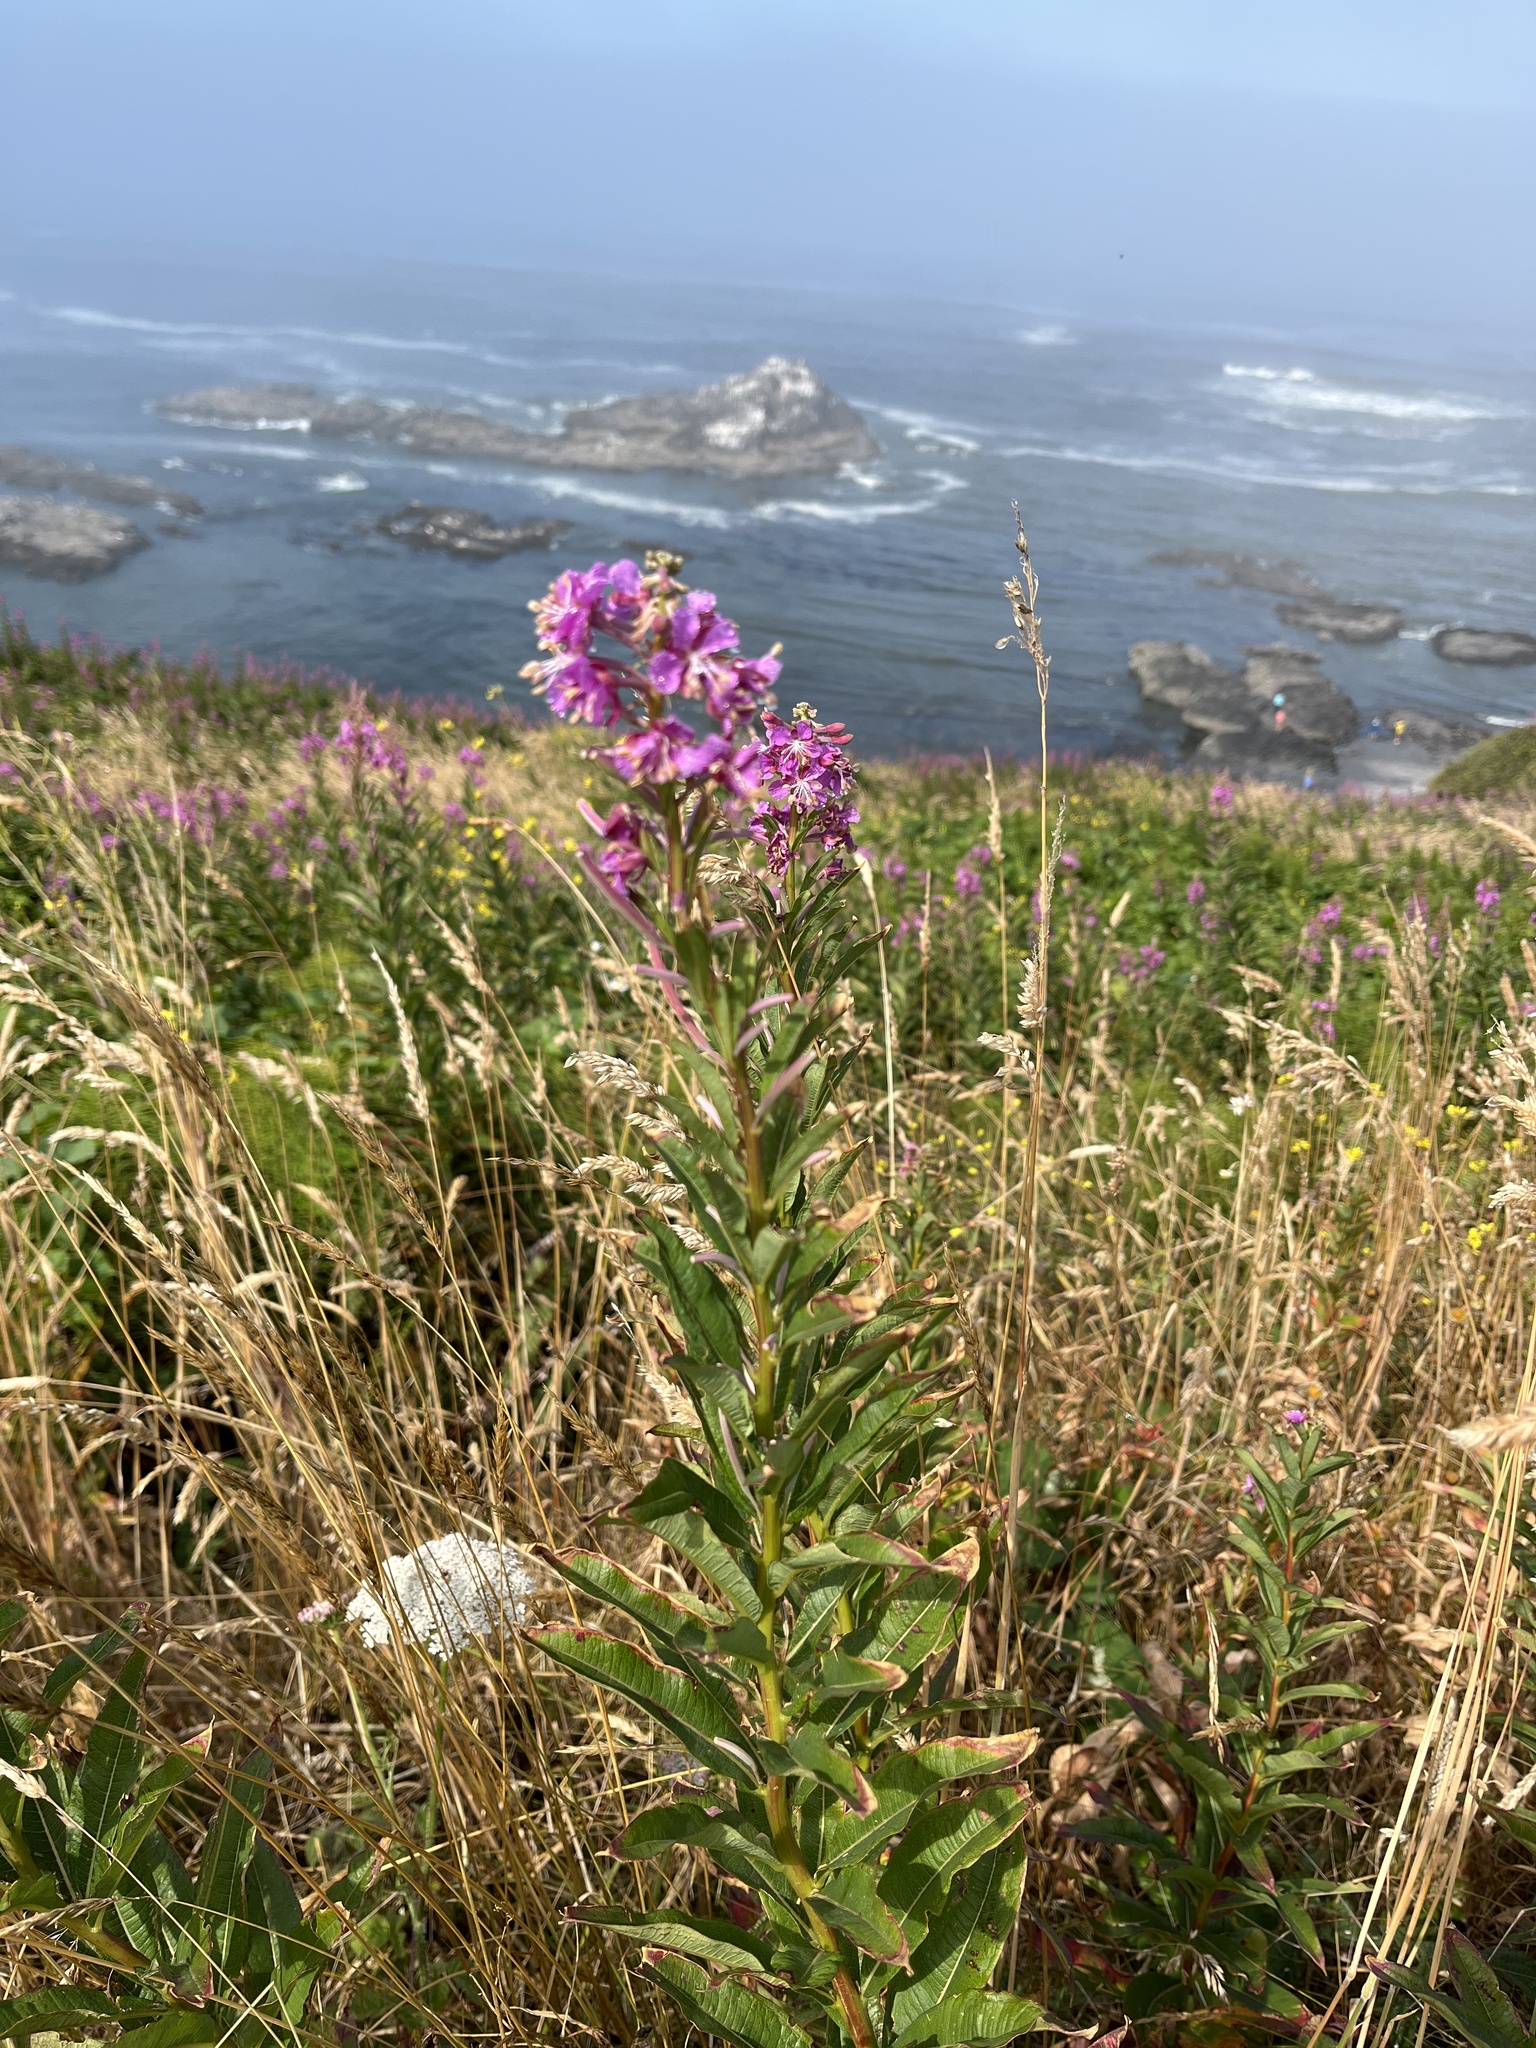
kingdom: Plantae
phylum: Tracheophyta
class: Magnoliopsida
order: Myrtales
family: Onagraceae
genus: Chamaenerion
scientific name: Chamaenerion angustifolium
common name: Fireweed
